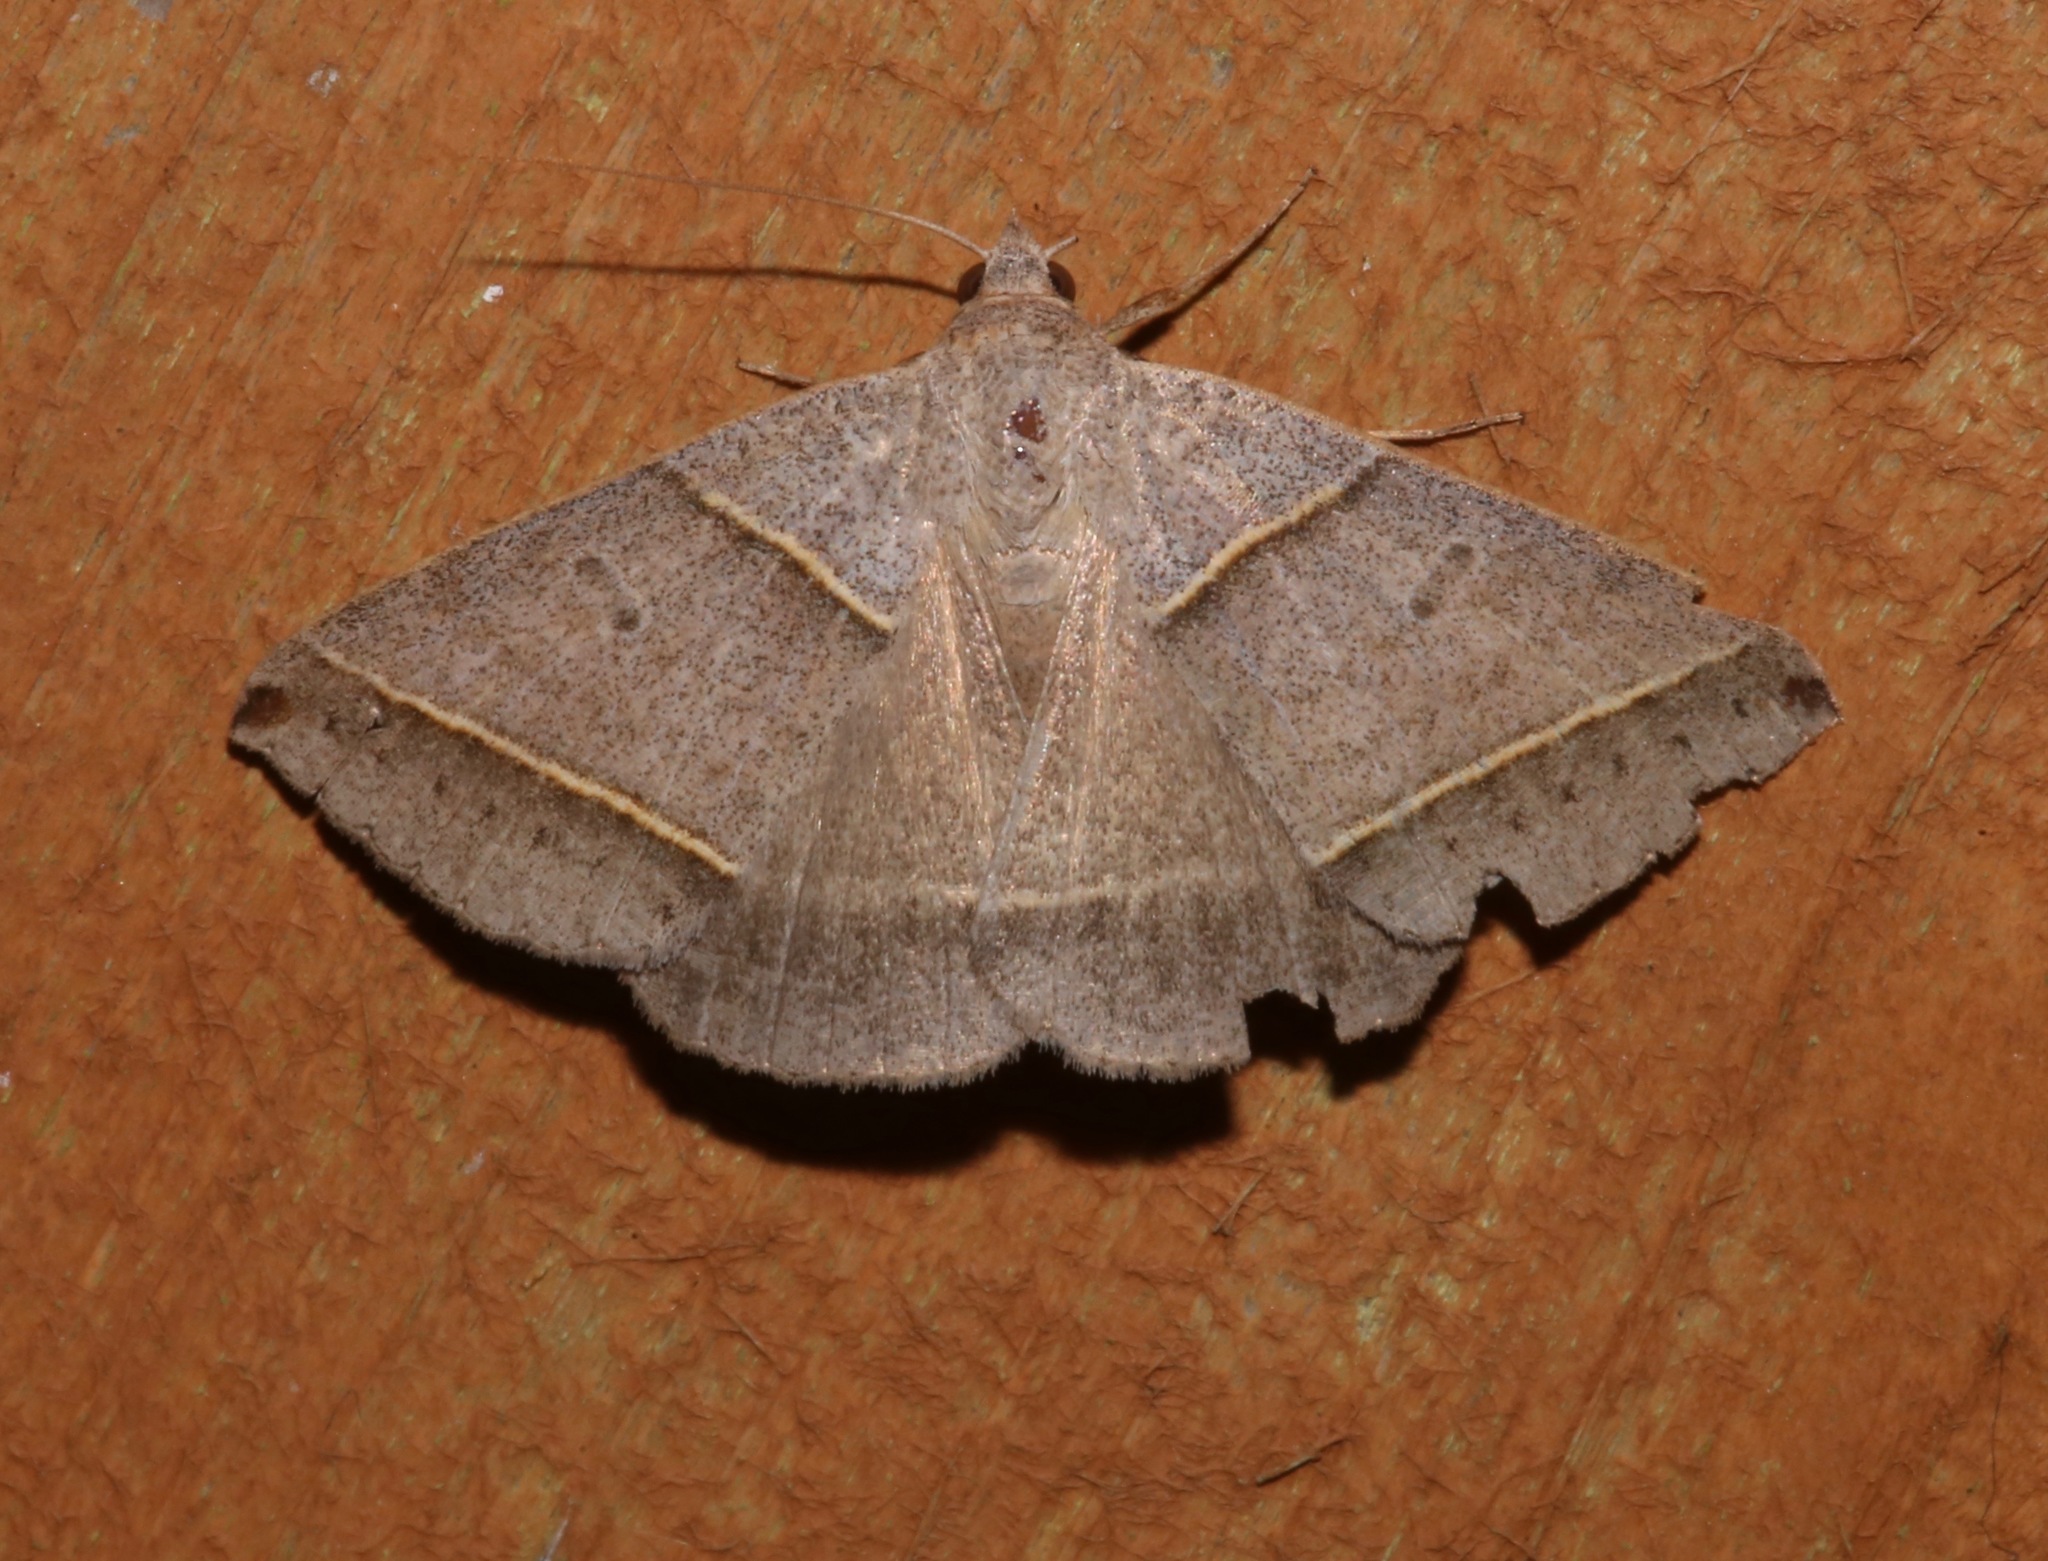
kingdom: Animalia
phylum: Arthropoda
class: Insecta
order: Lepidoptera
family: Erebidae
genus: Ptichodis
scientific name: Ptichodis vinculum
